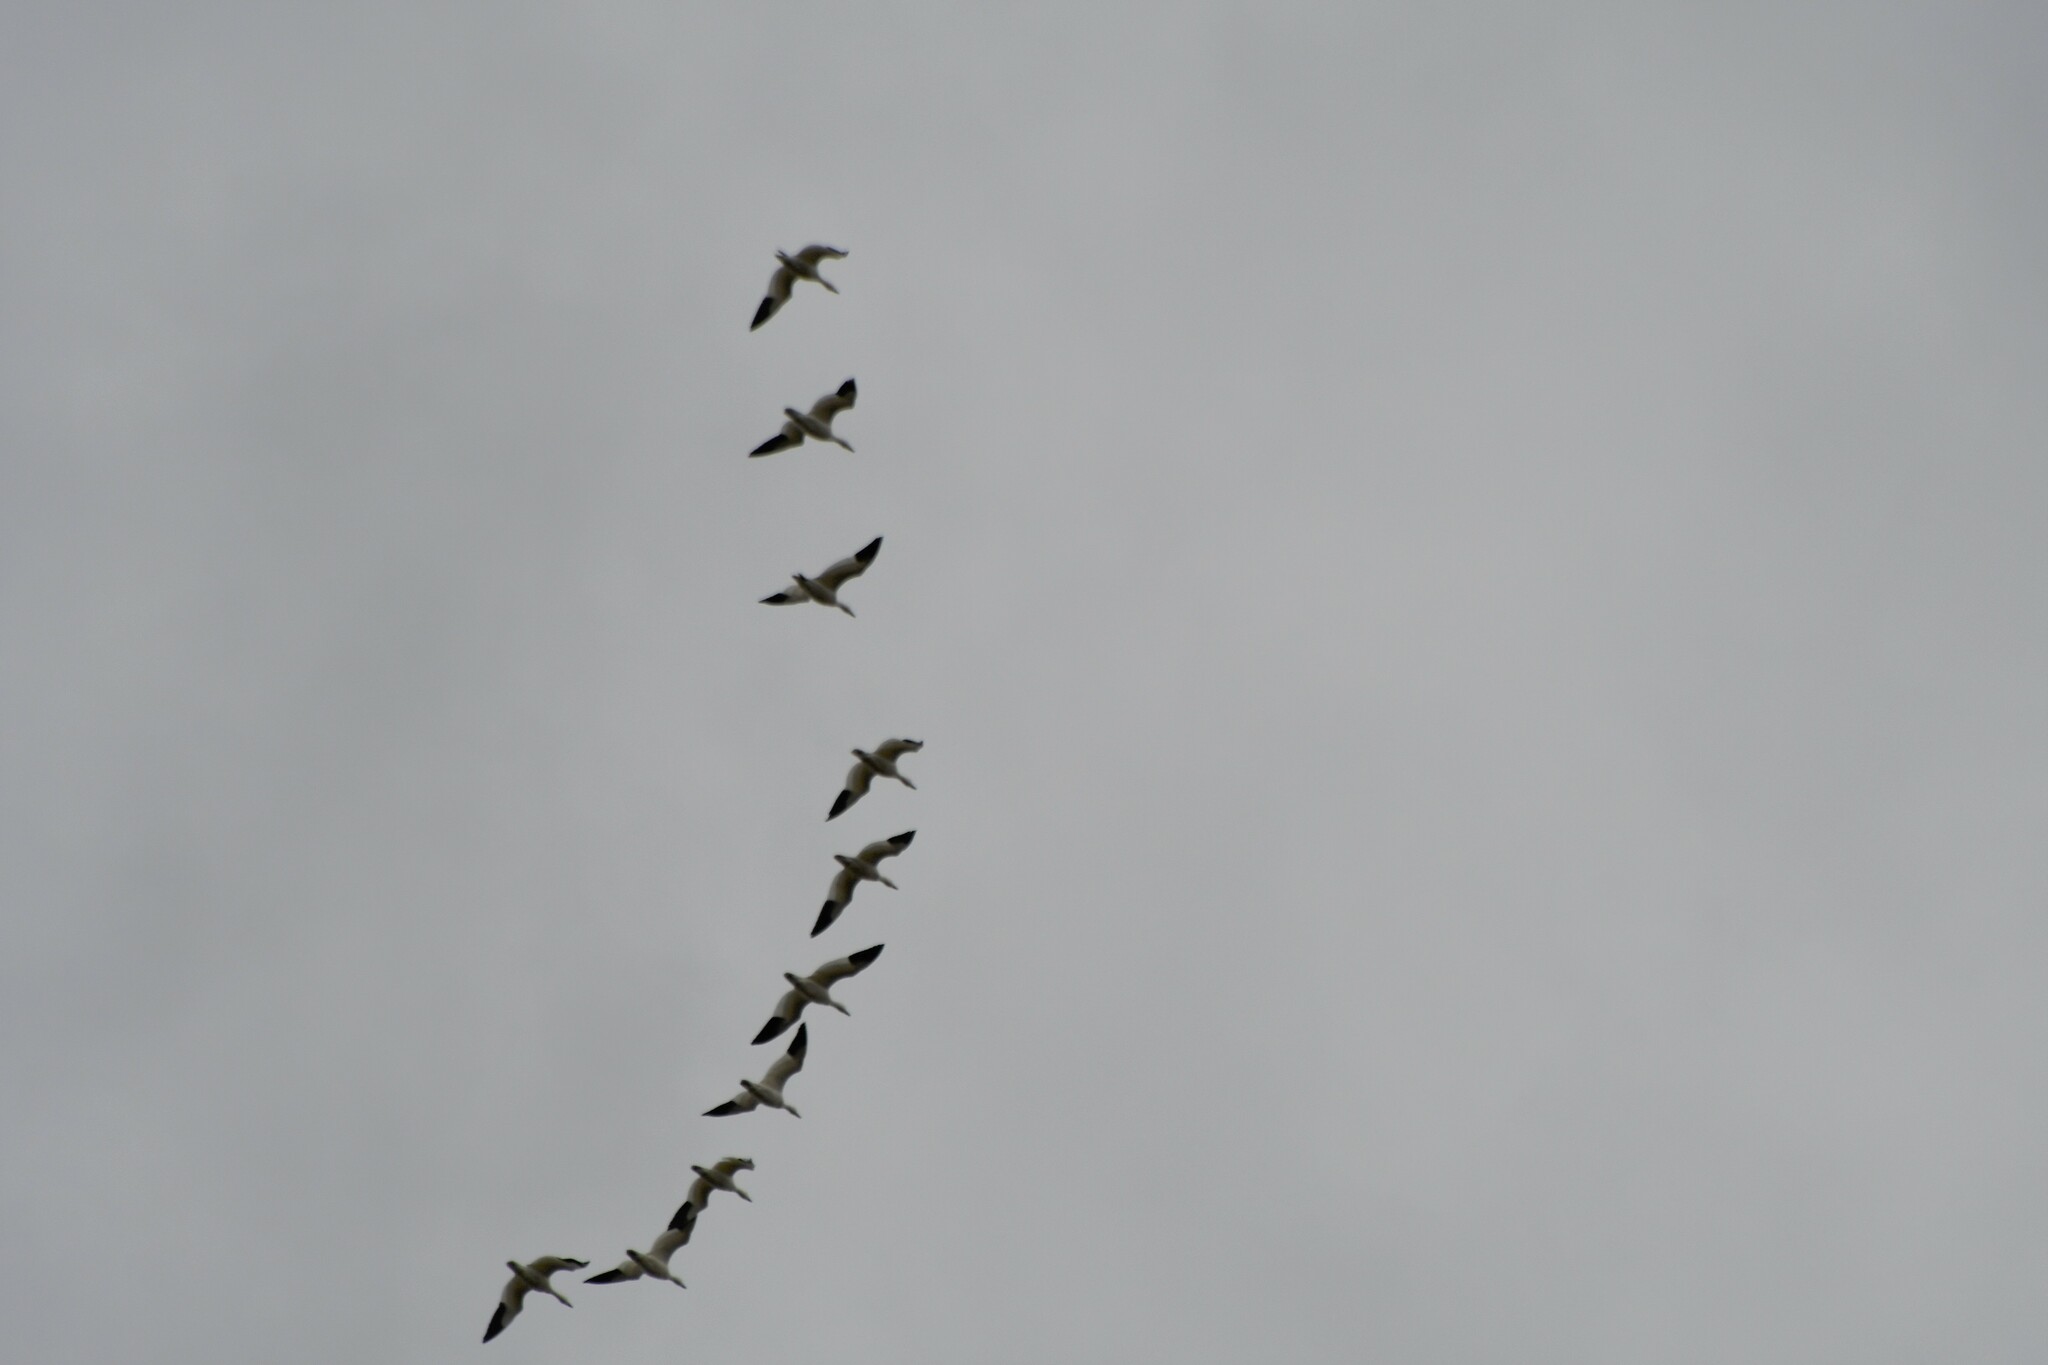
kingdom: Animalia
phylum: Chordata
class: Aves
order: Anseriformes
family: Anatidae
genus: Anser
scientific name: Anser caerulescens
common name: Snow goose
